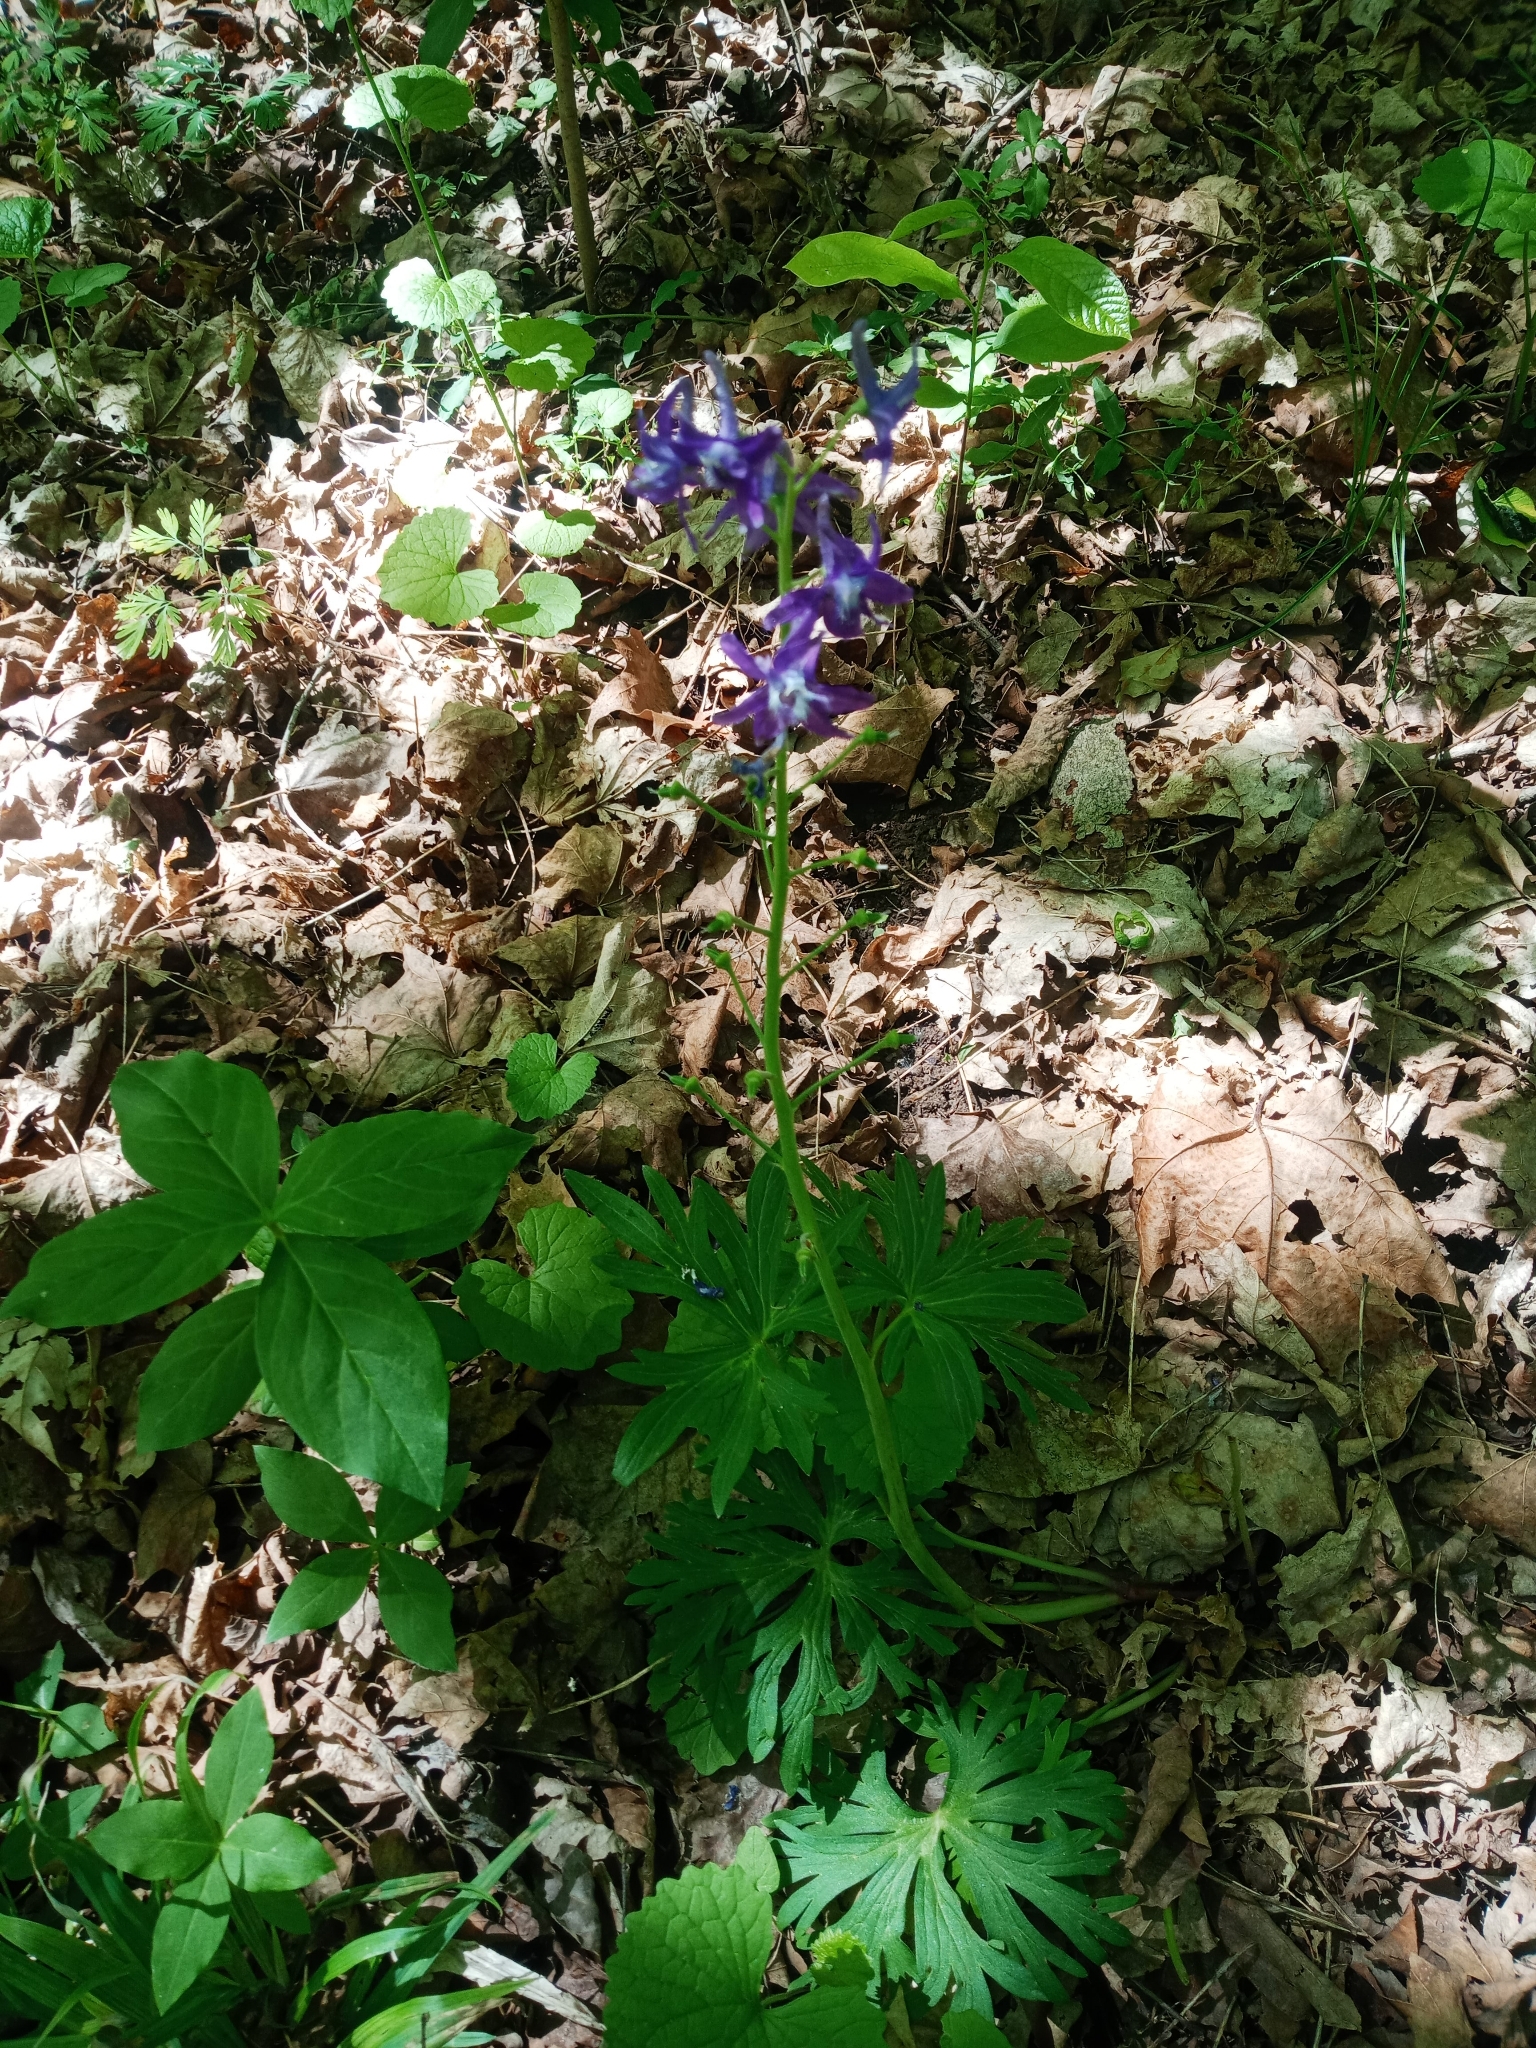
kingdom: Plantae
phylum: Tracheophyta
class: Magnoliopsida
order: Ranunculales
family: Ranunculaceae
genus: Delphinium
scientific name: Delphinium tricorne
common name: Dwarf larkspur
